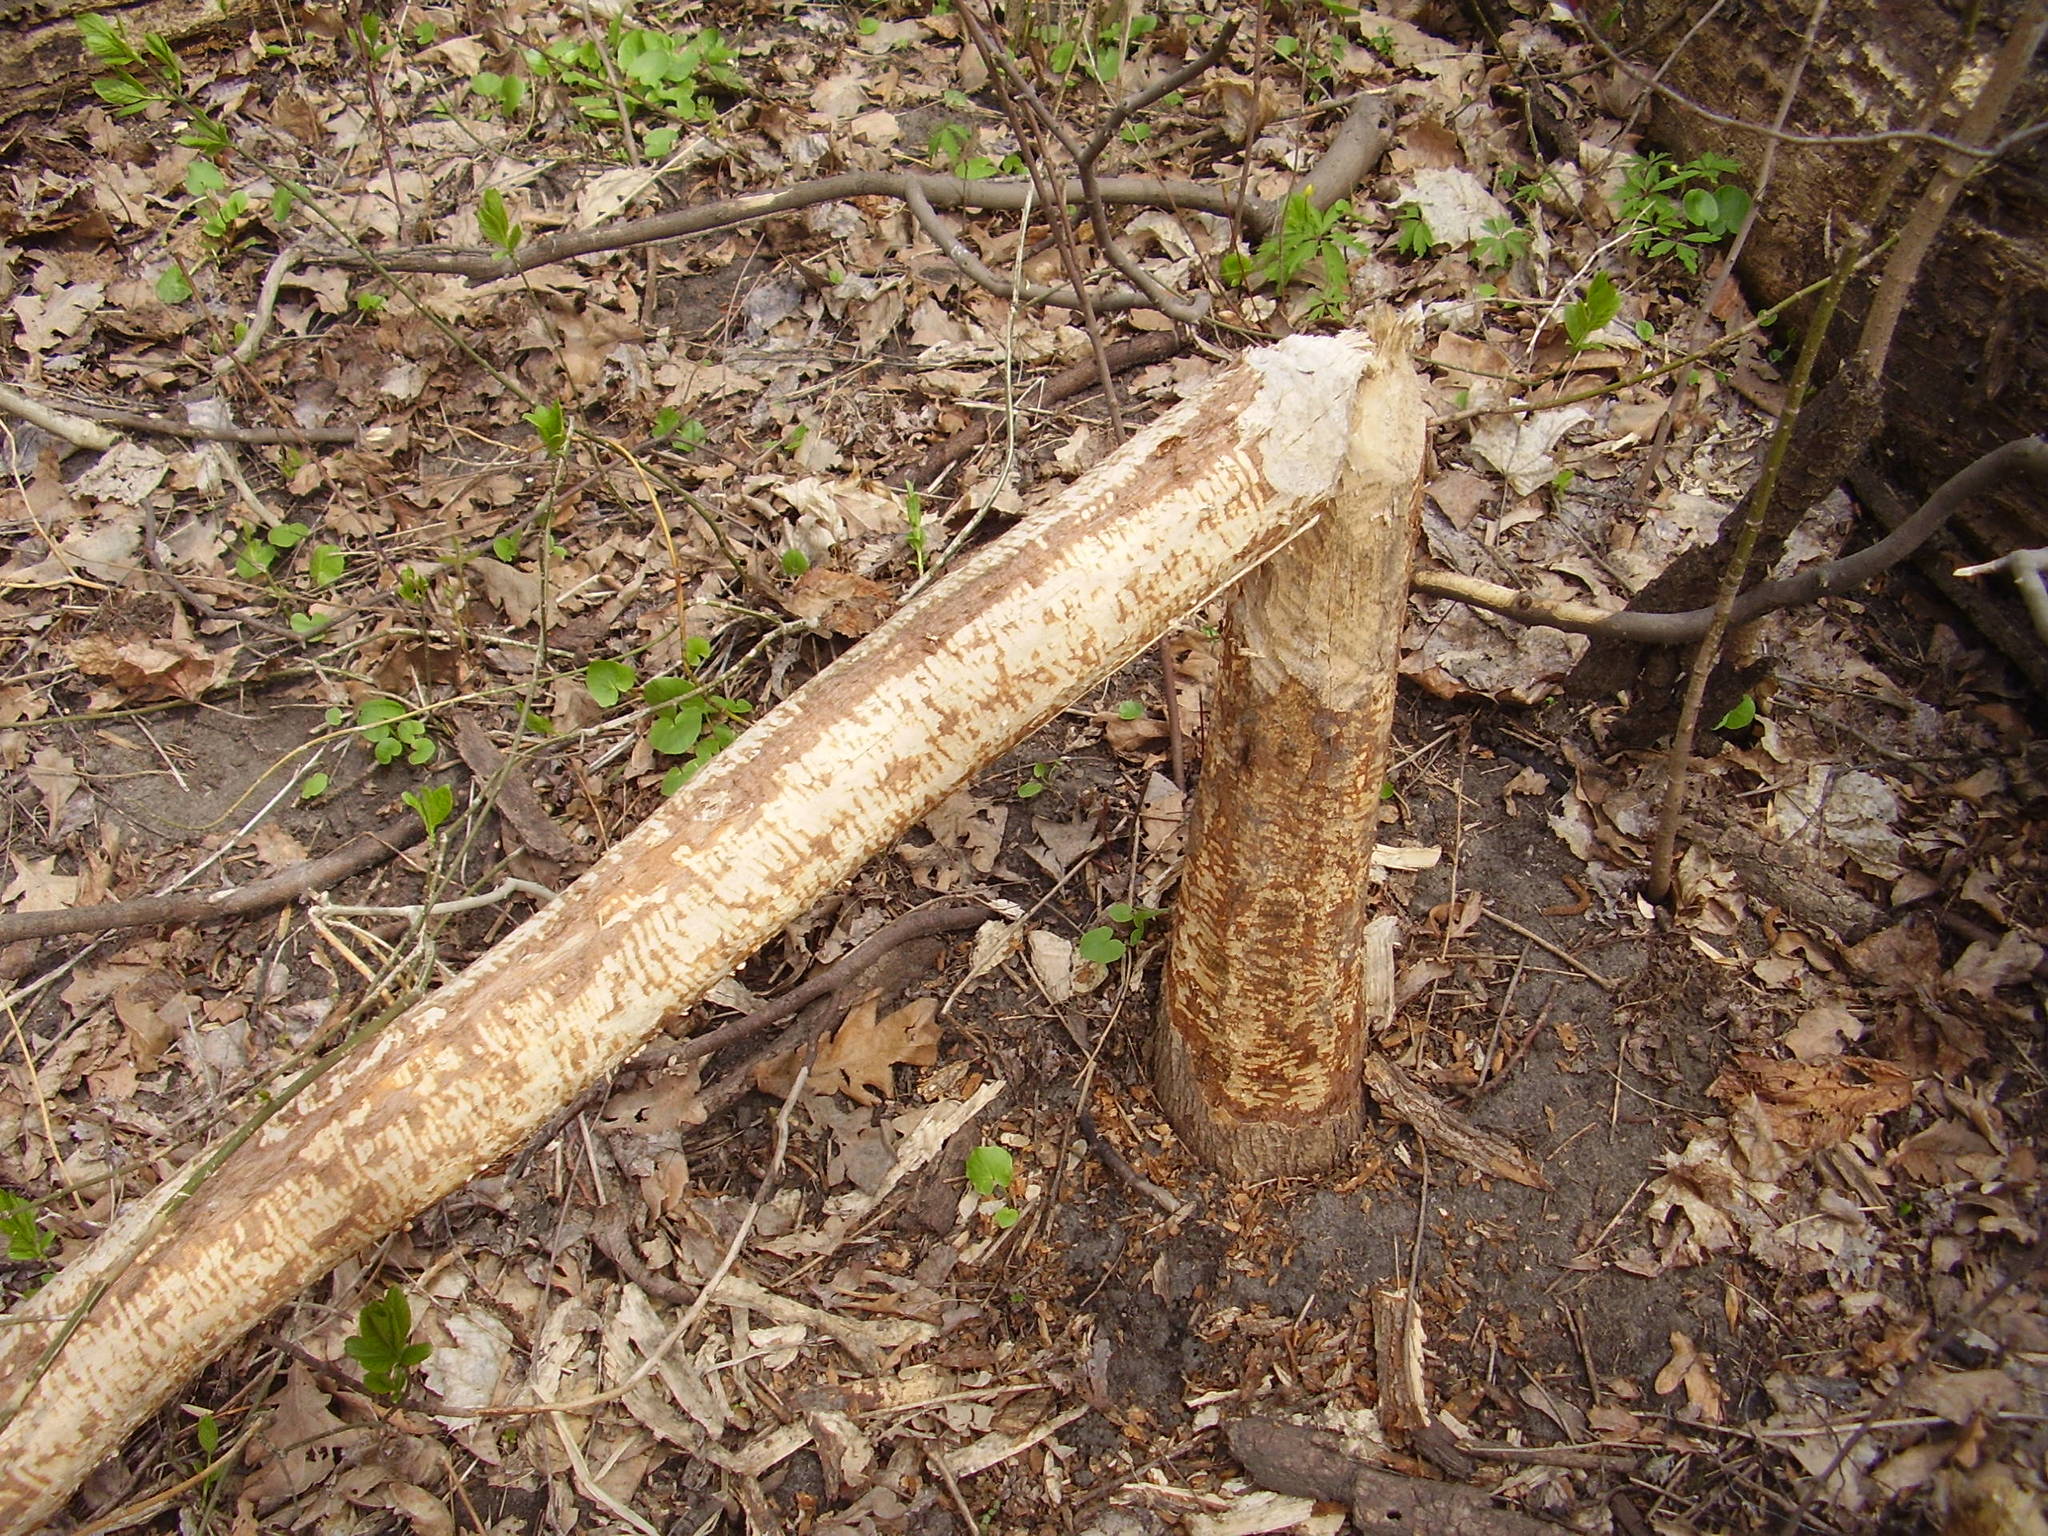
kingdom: Animalia
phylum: Chordata
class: Mammalia
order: Rodentia
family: Castoridae
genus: Castor
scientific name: Castor fiber
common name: Eurasian beaver
